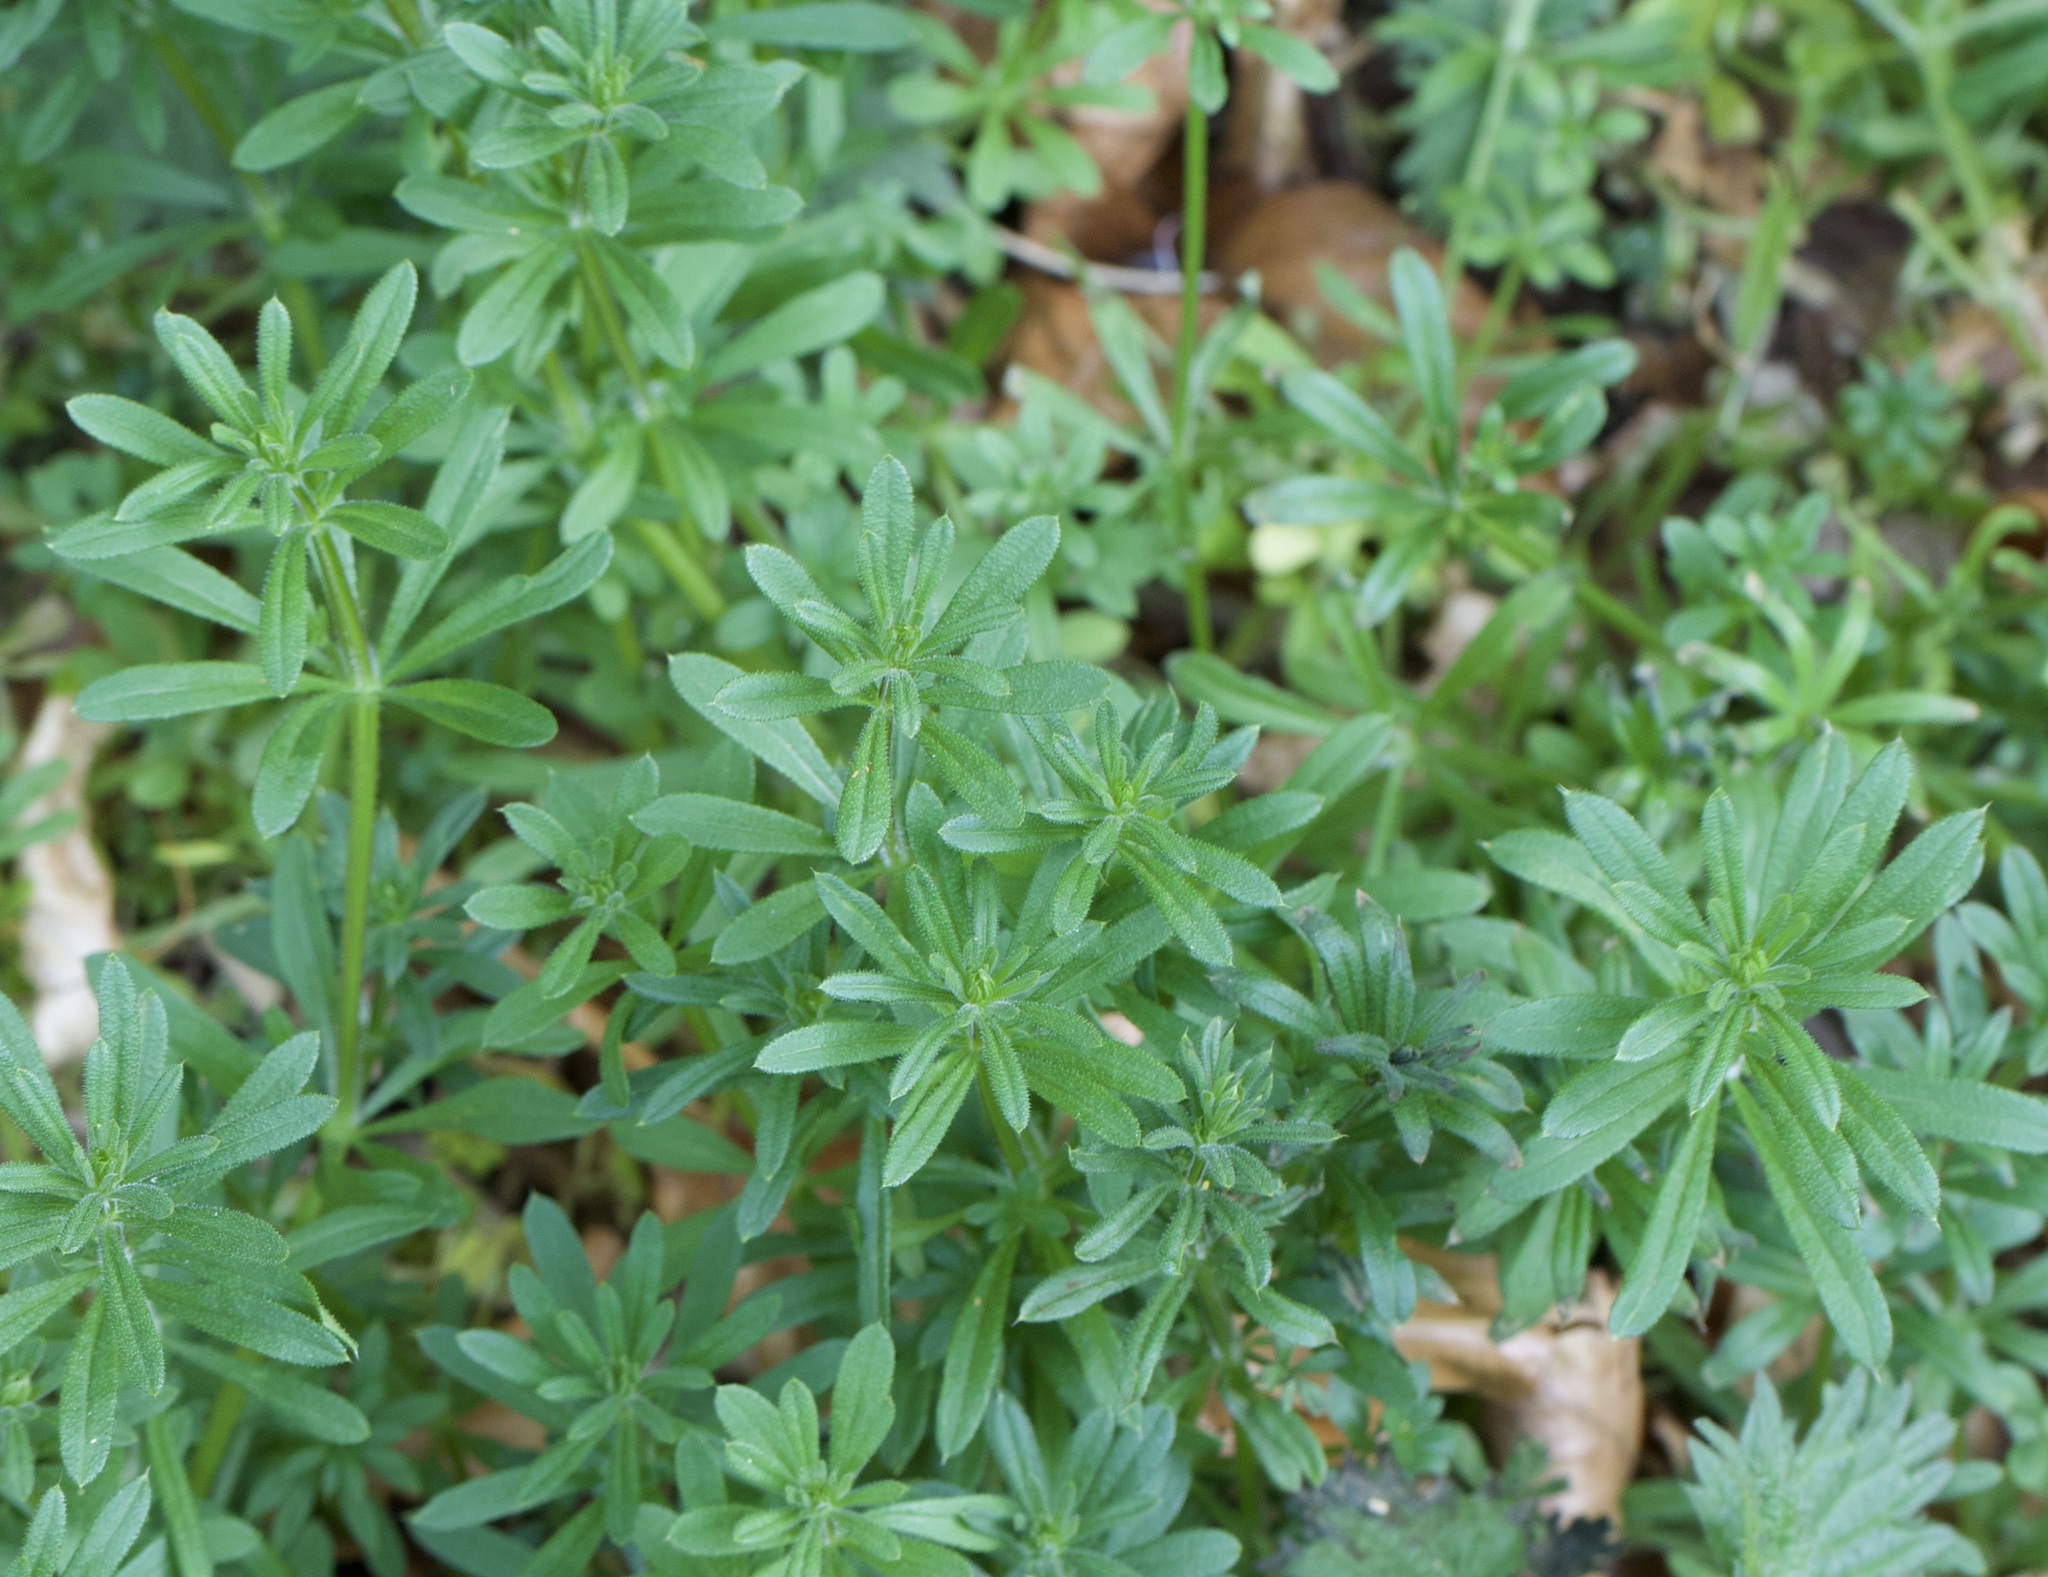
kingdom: Plantae
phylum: Tracheophyta
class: Magnoliopsida
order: Gentianales
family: Rubiaceae
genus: Galium
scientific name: Galium aparine
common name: Cleavers
